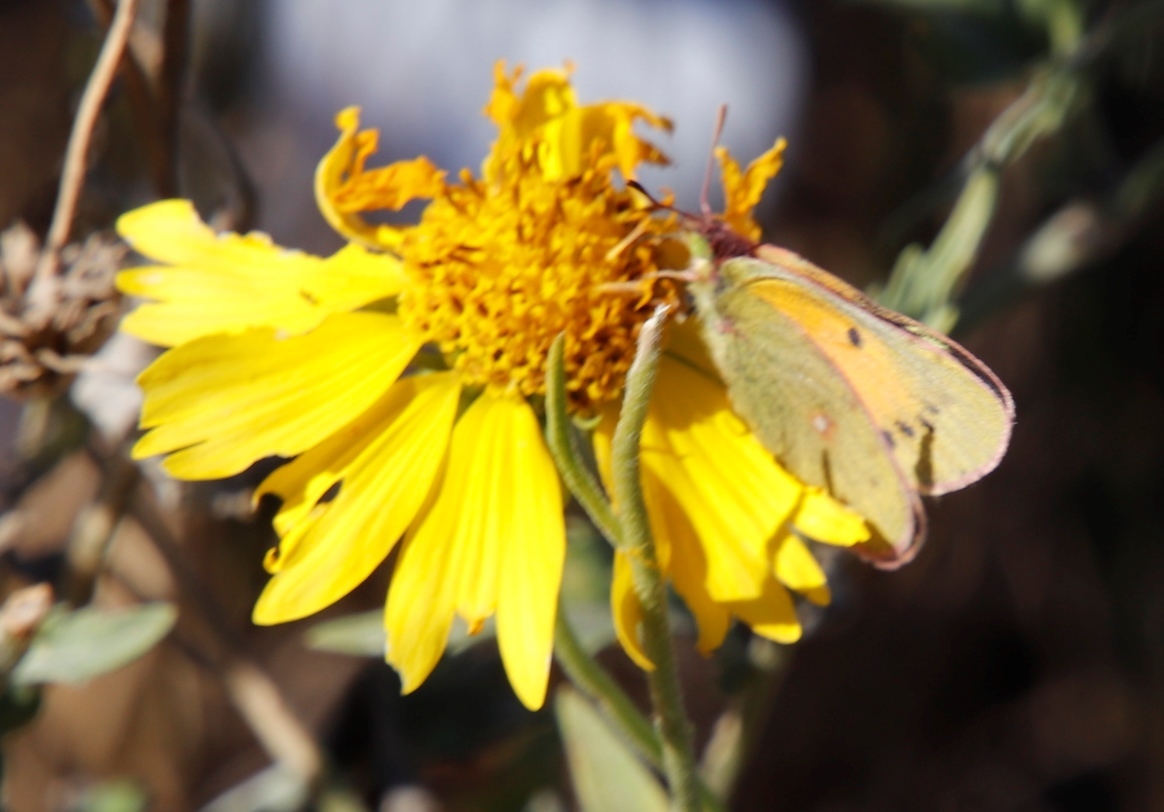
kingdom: Animalia
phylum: Arthropoda
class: Insecta
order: Lepidoptera
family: Pieridae
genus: Colias
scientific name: Colias electo
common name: African clouded yellow
